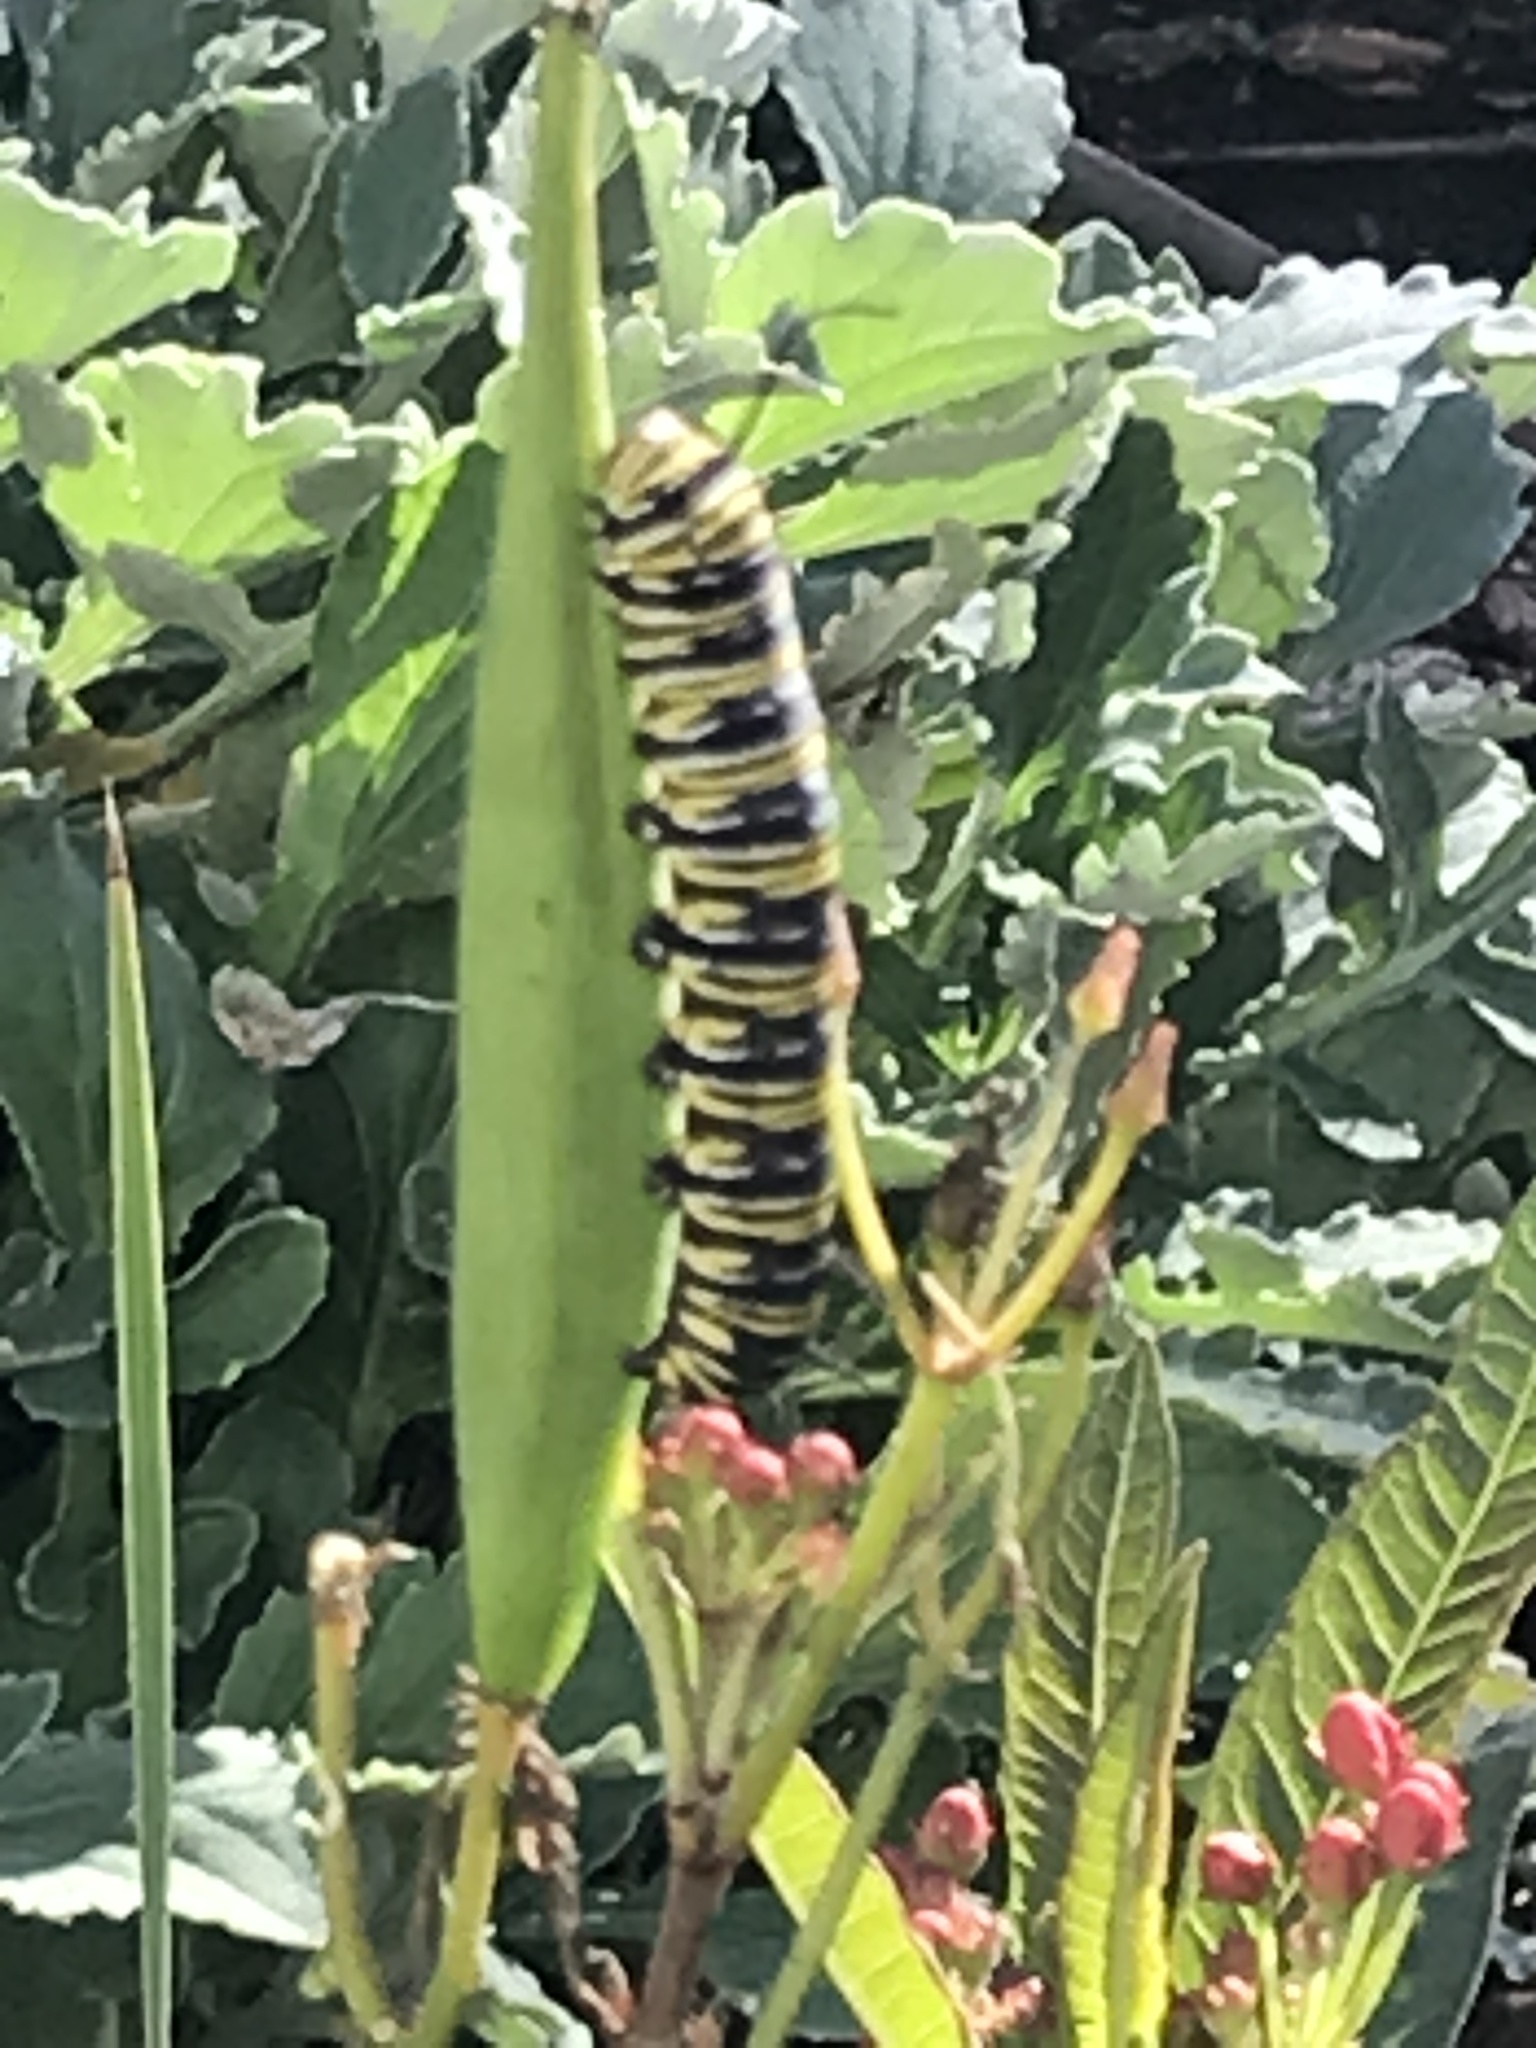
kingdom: Animalia
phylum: Arthropoda
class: Insecta
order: Lepidoptera
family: Nymphalidae
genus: Danaus
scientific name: Danaus plexippus
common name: Monarch
